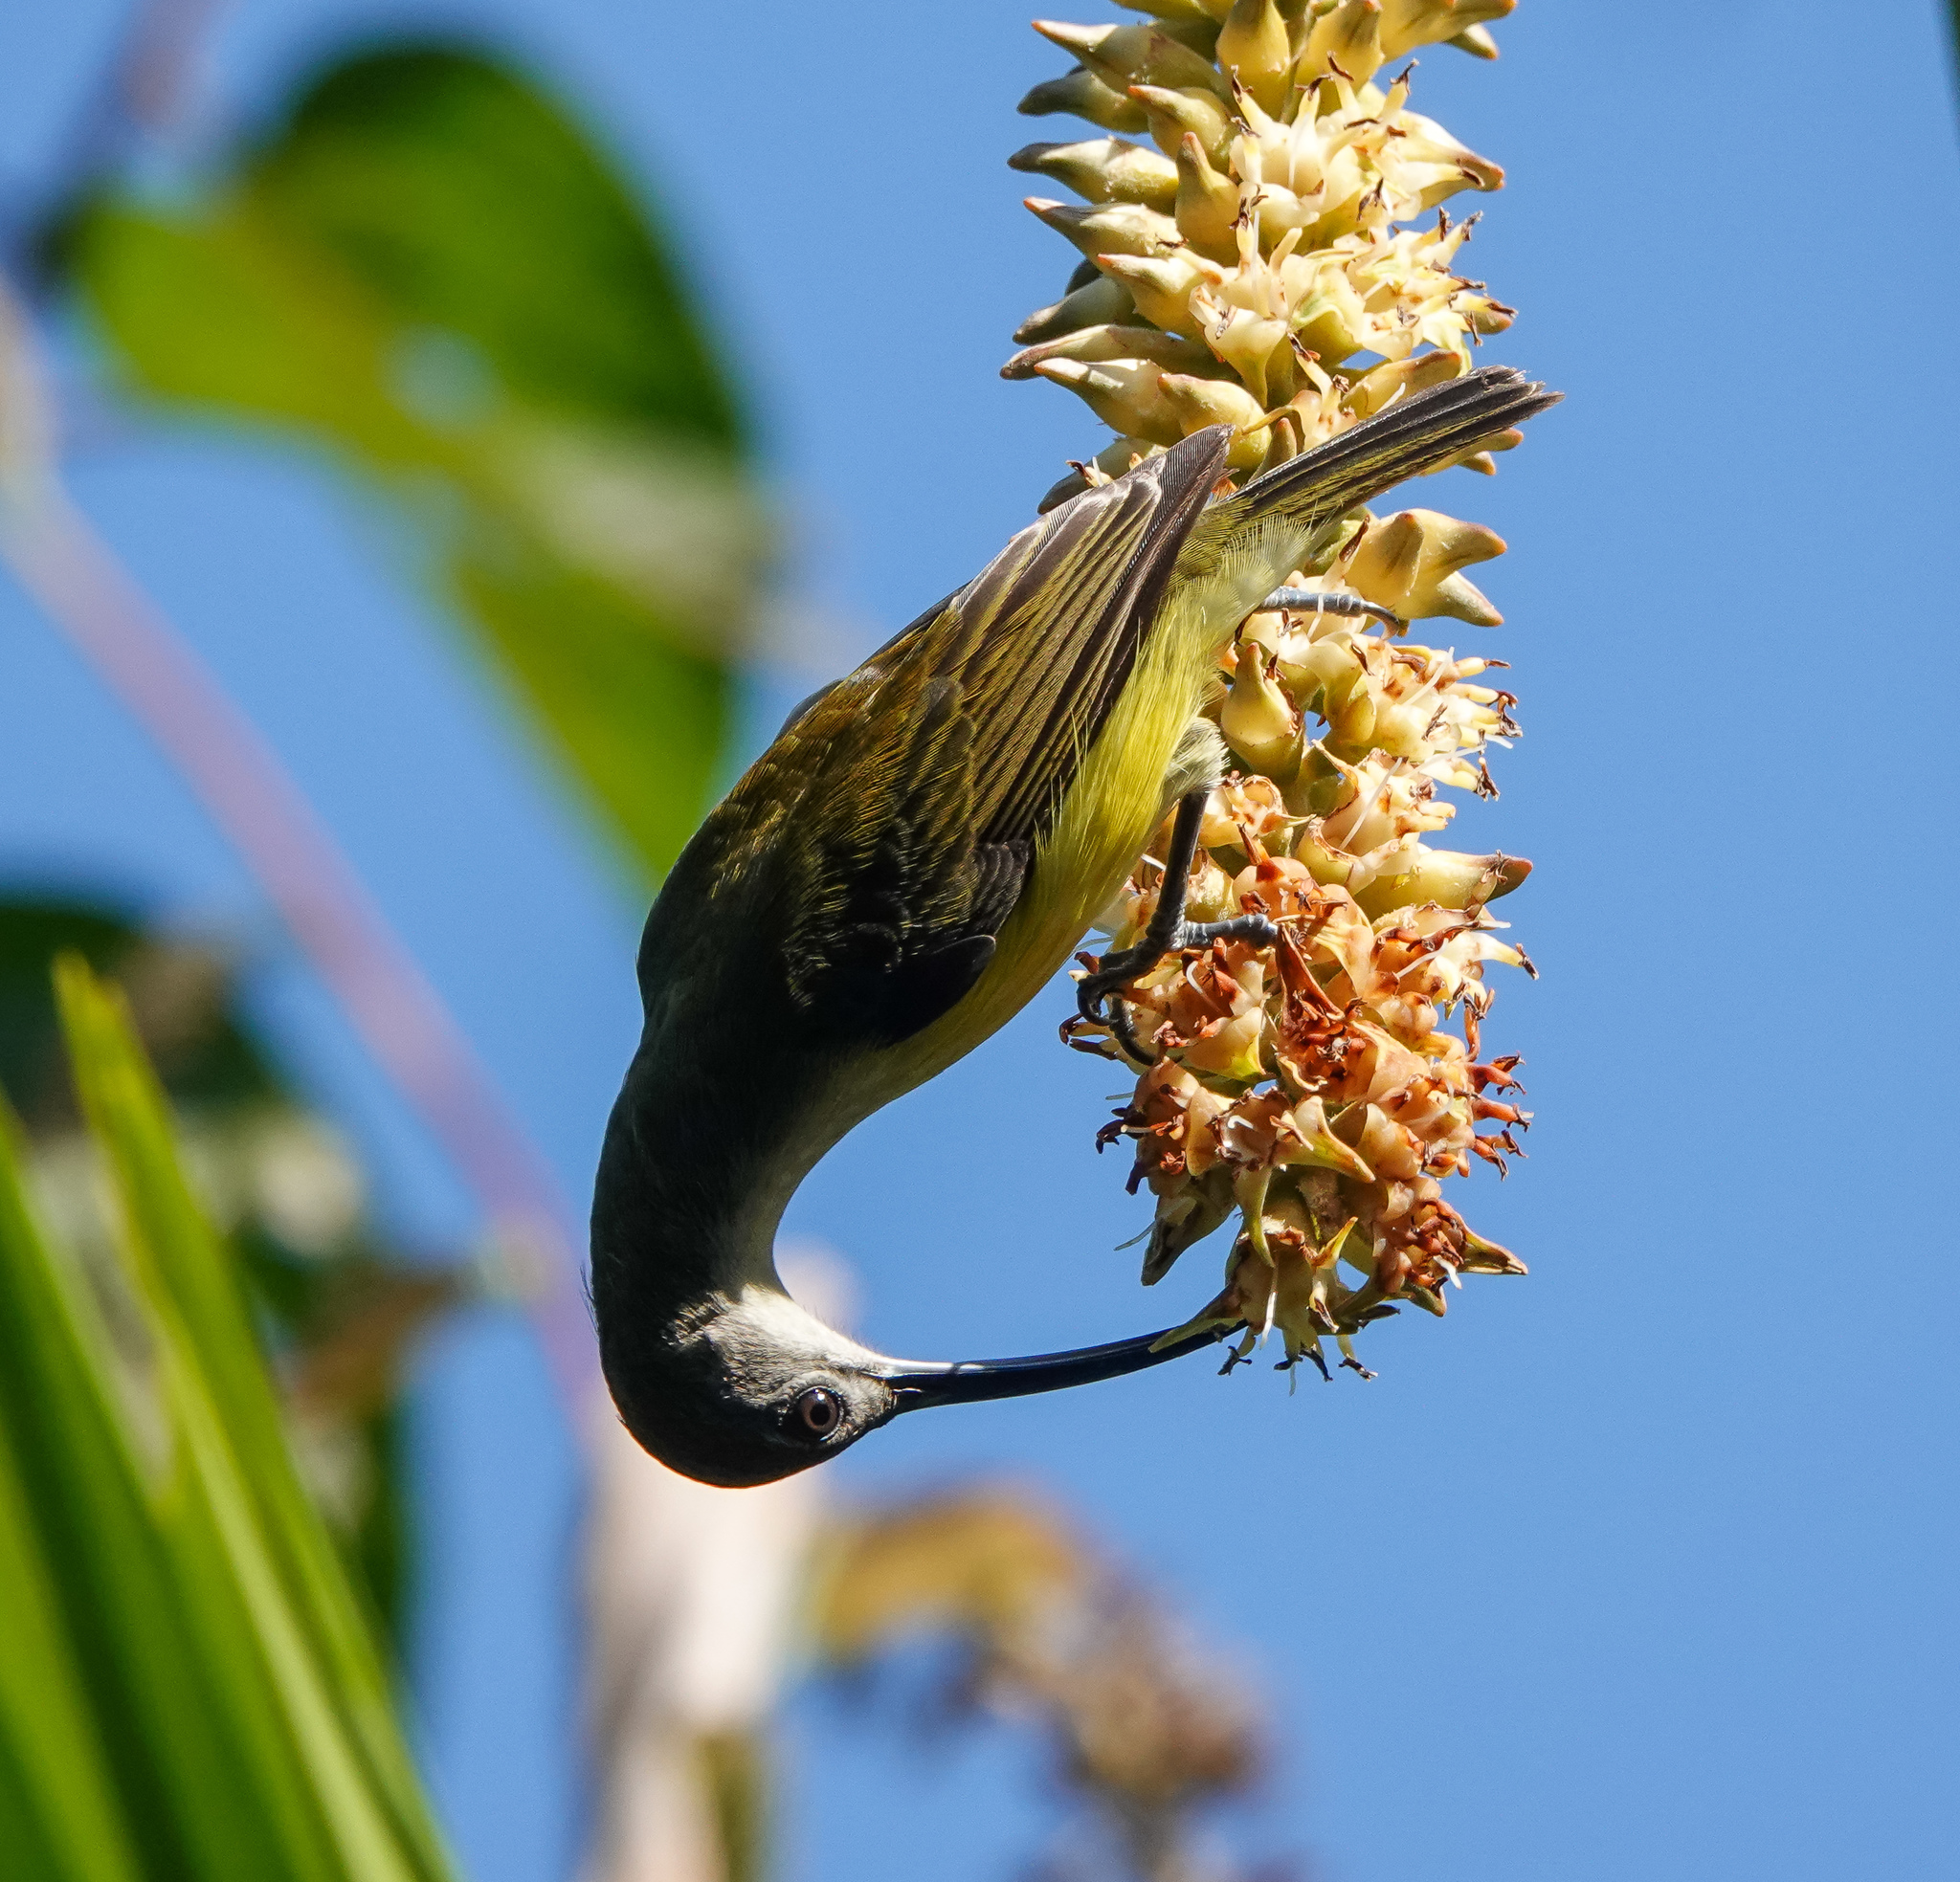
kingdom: Animalia
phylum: Chordata
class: Aves
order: Passeriformes
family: Nectariniidae
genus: Arachnothera
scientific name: Arachnothera longirostra
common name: Little spiderhunter
